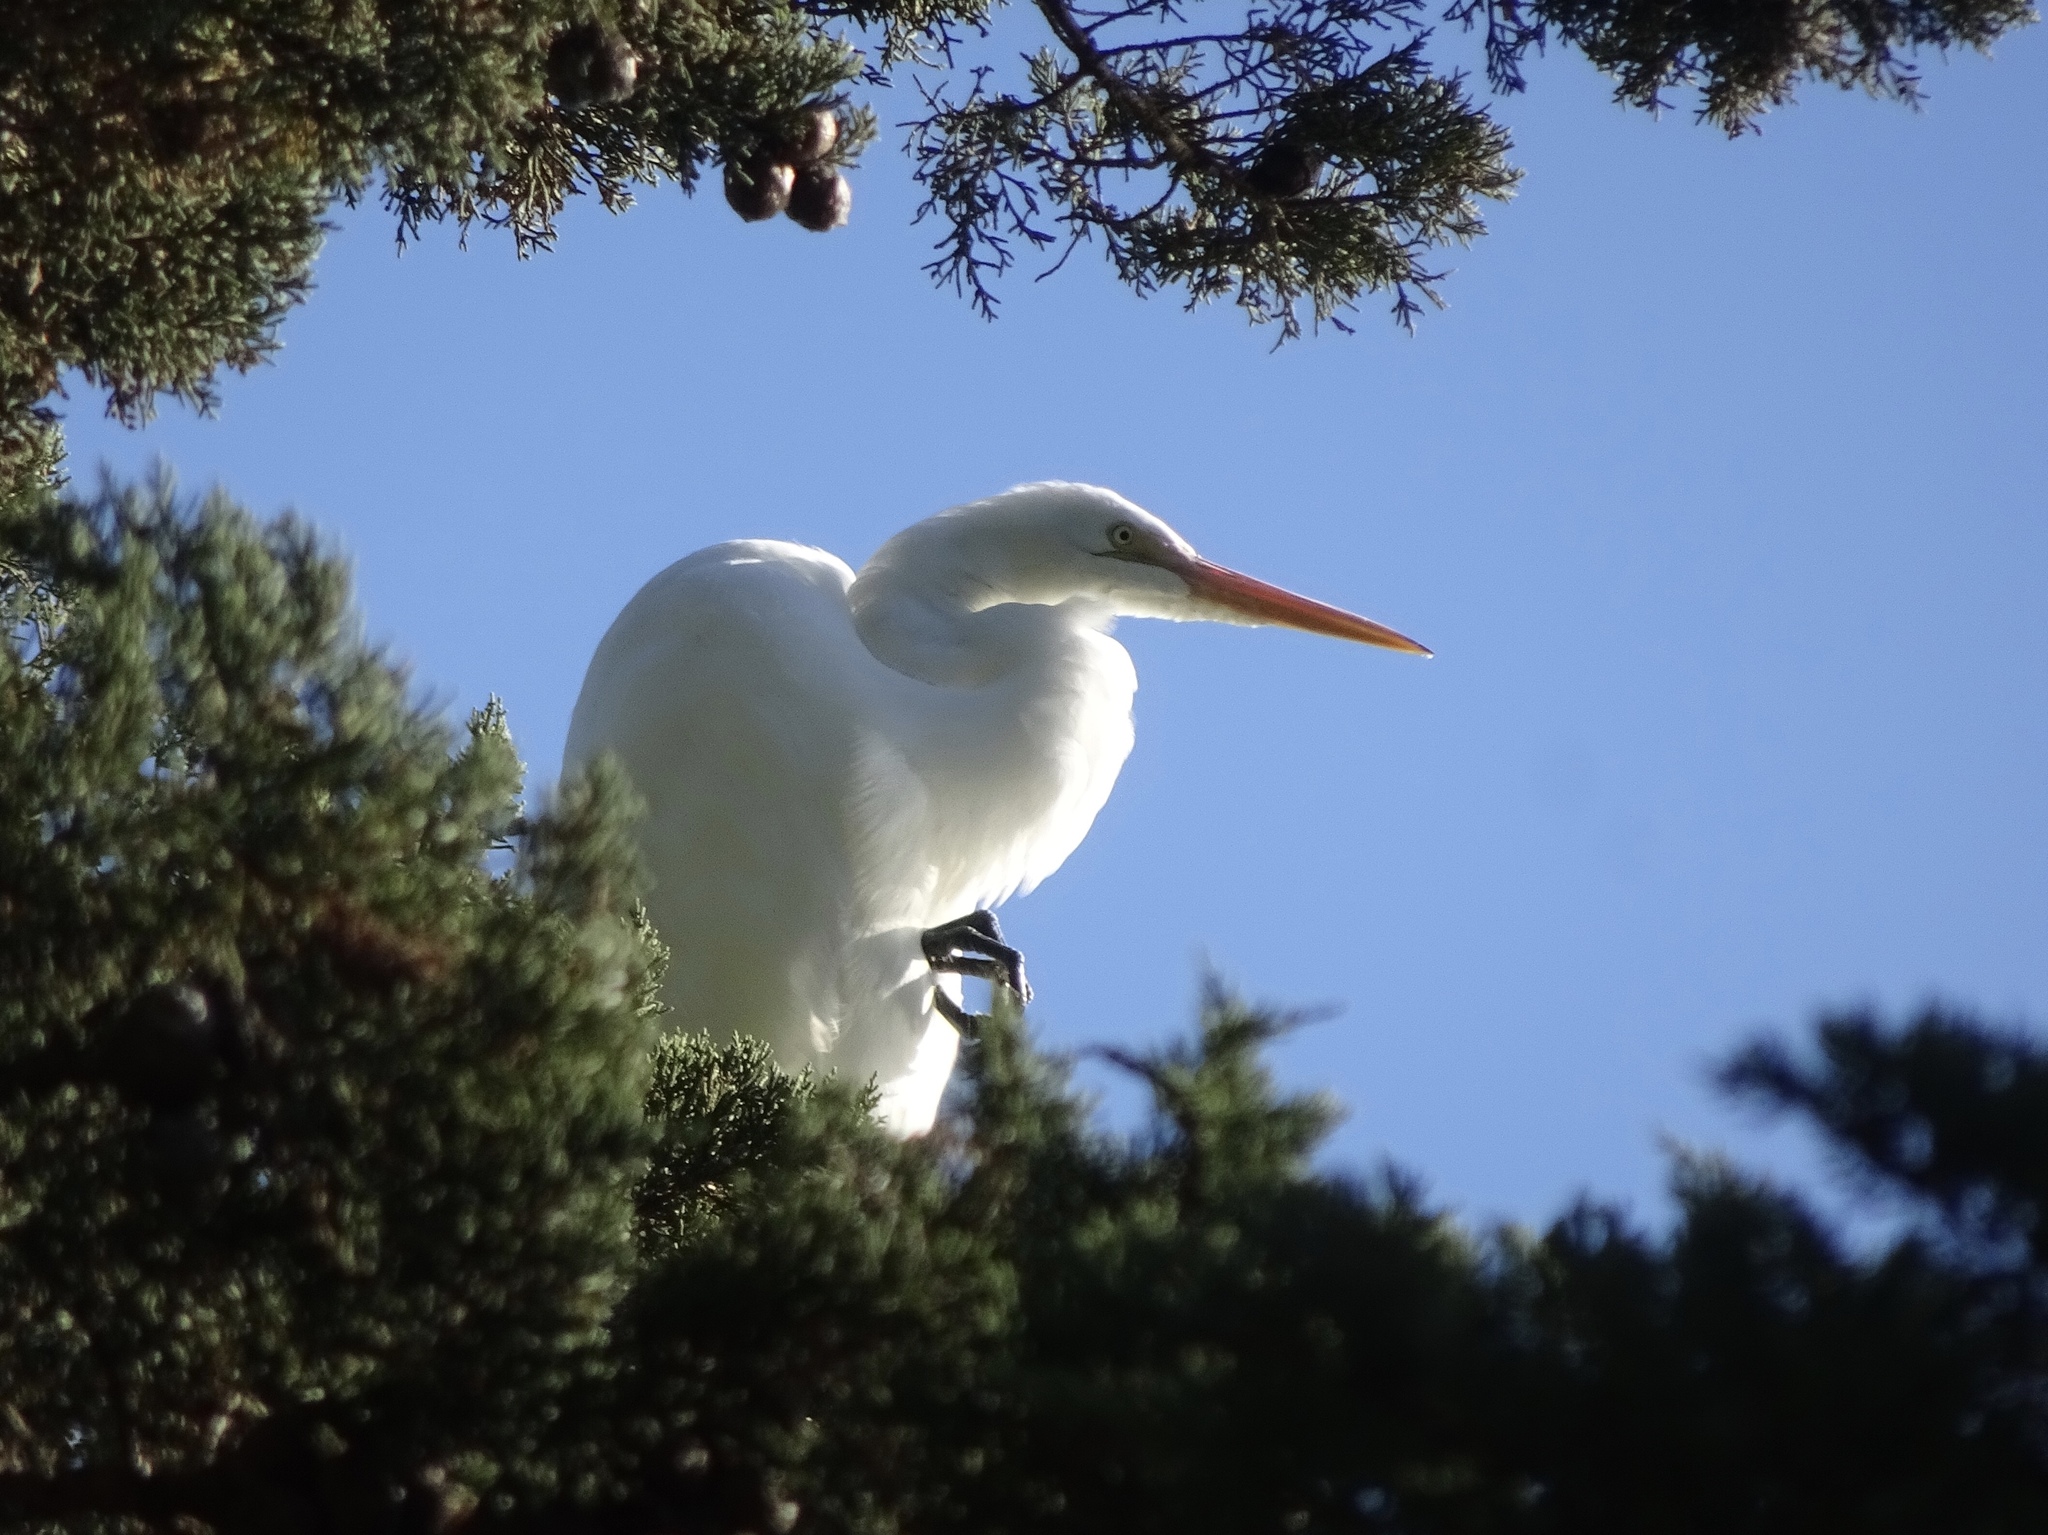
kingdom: Animalia
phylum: Chordata
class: Aves
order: Pelecaniformes
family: Ardeidae
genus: Ardea
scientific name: Ardea alba
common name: Great egret
